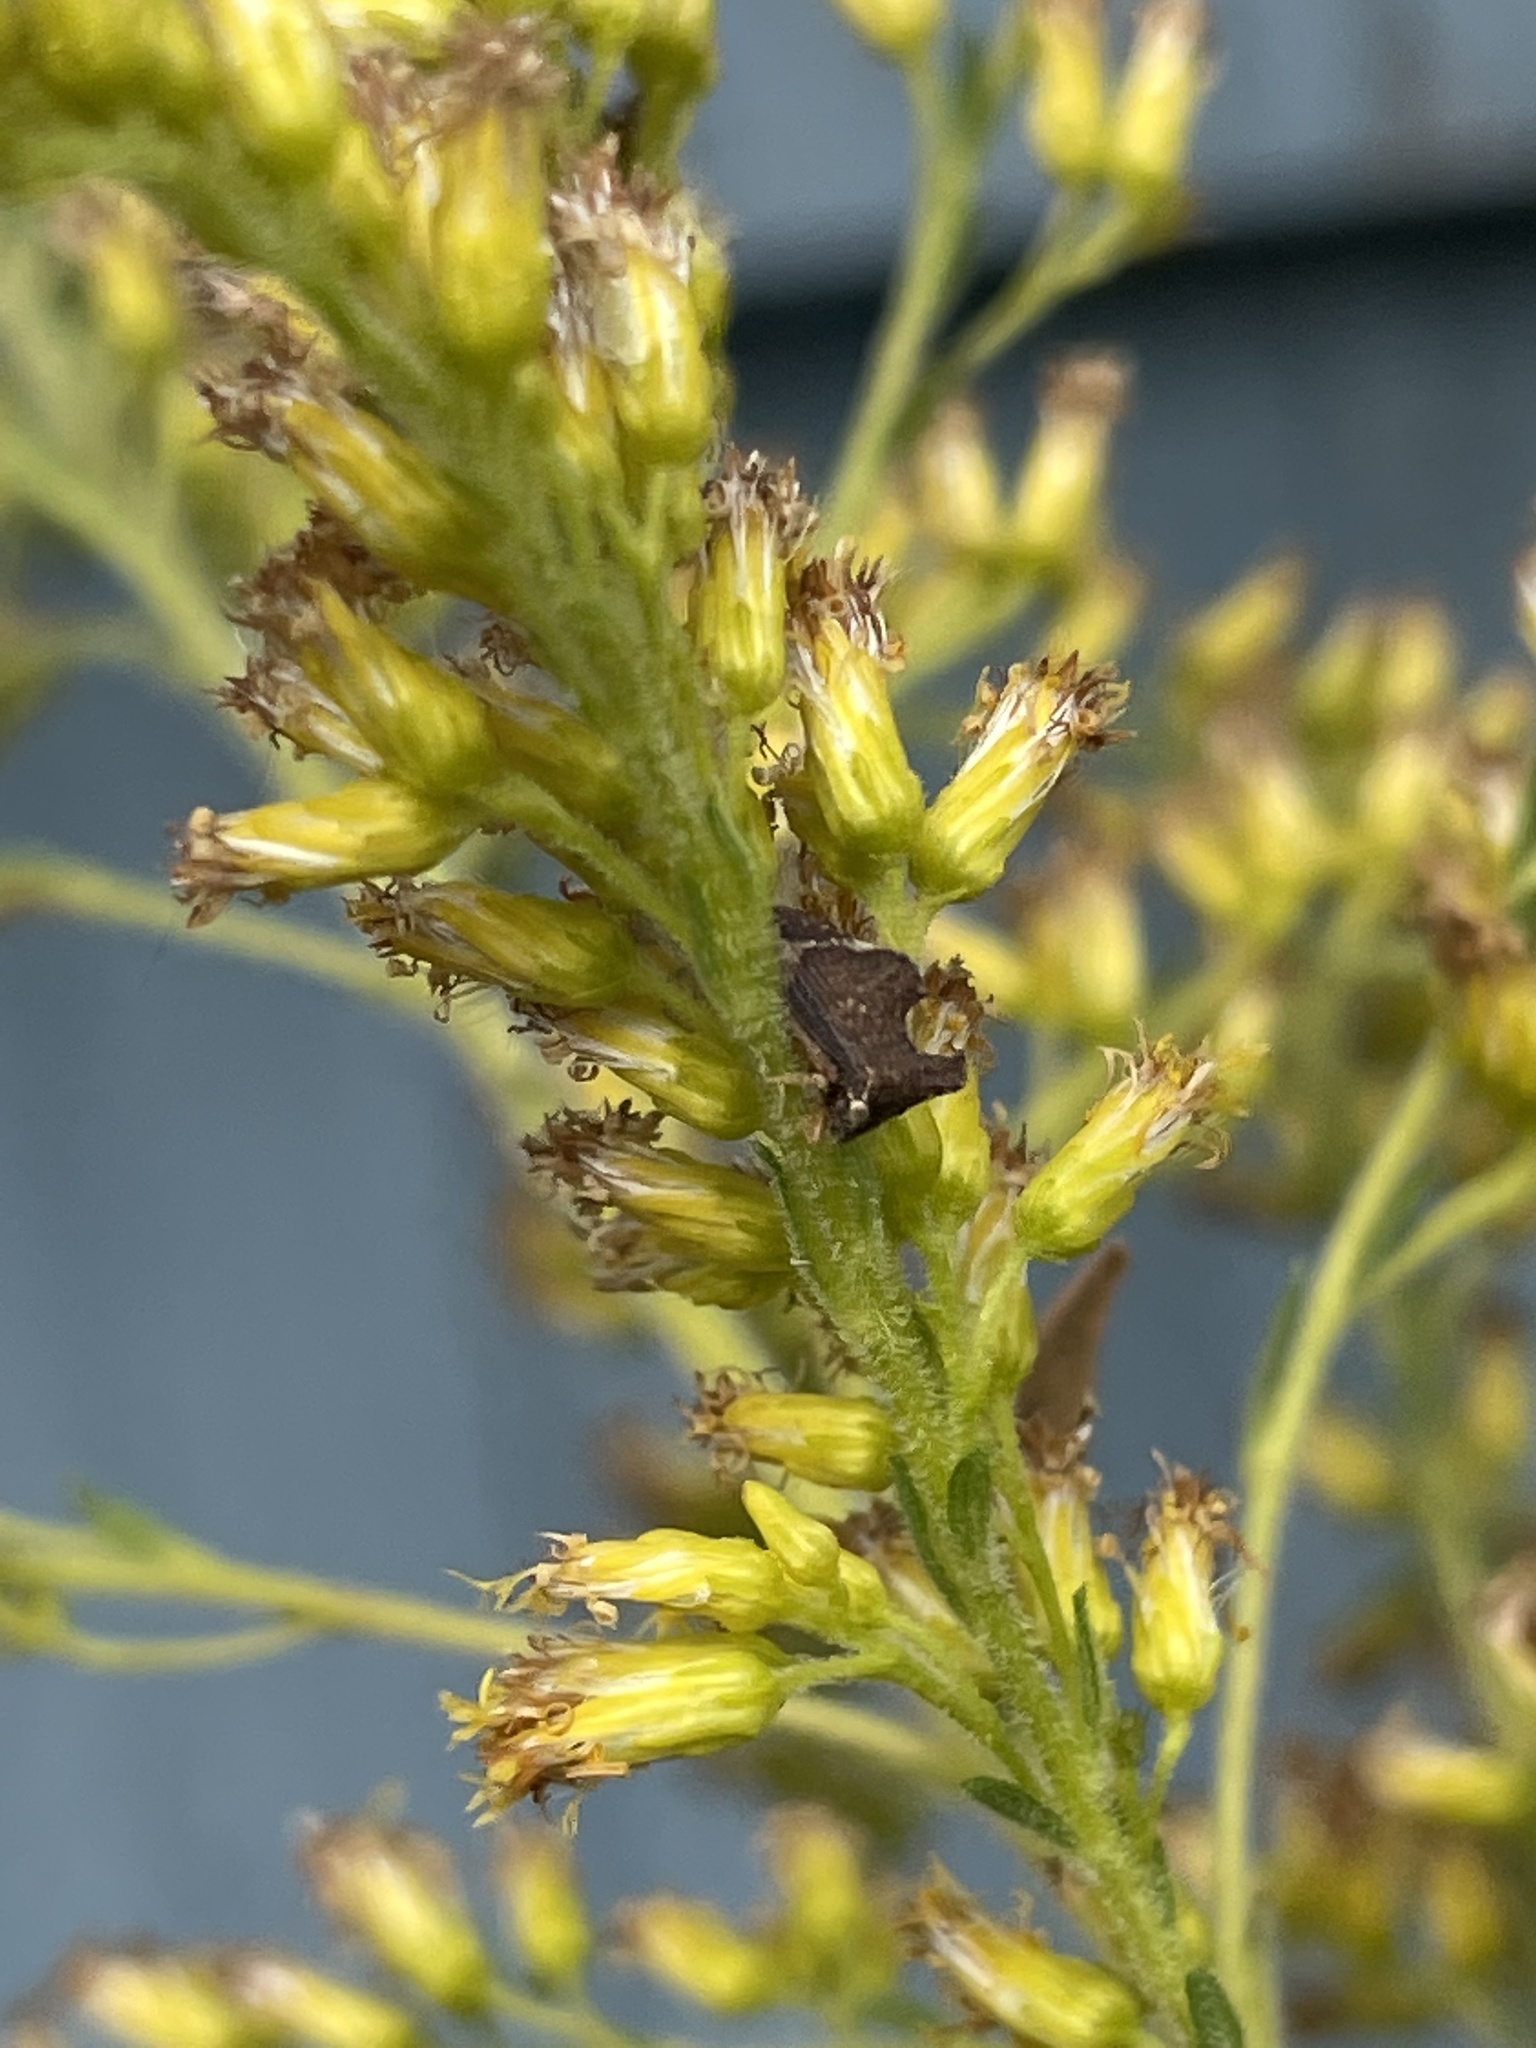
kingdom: Animalia
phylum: Arthropoda
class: Insecta
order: Hemiptera
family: Membracidae
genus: Entylia
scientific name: Entylia carinata
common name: Keeled treehopper
